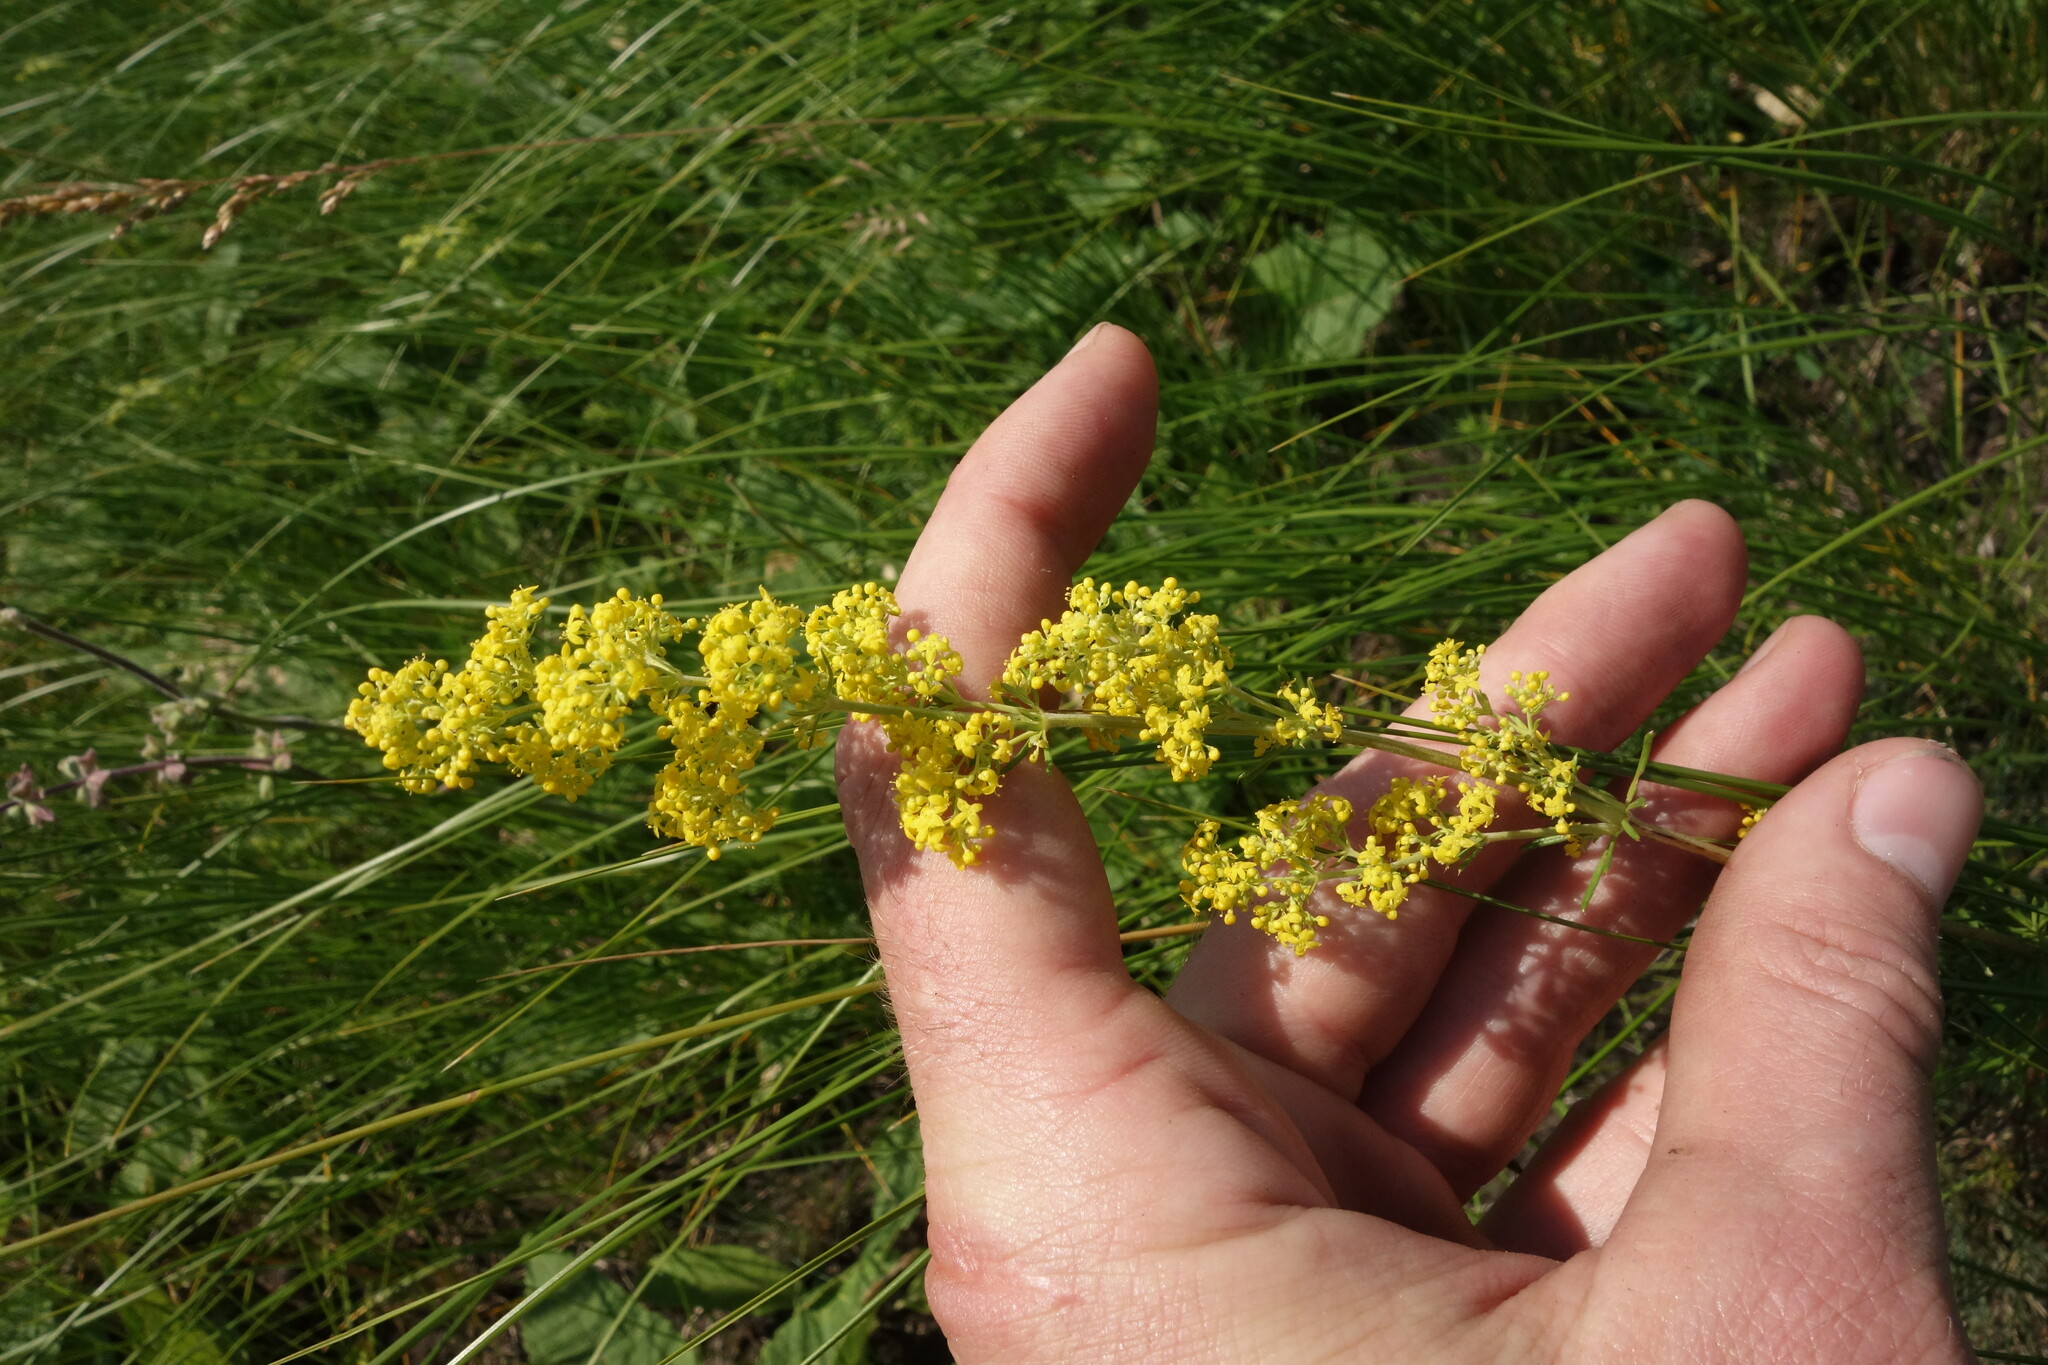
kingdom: Plantae
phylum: Tracheophyta
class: Magnoliopsida
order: Gentianales
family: Rubiaceae
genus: Galium
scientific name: Galium verum
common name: Lady's bedstraw
